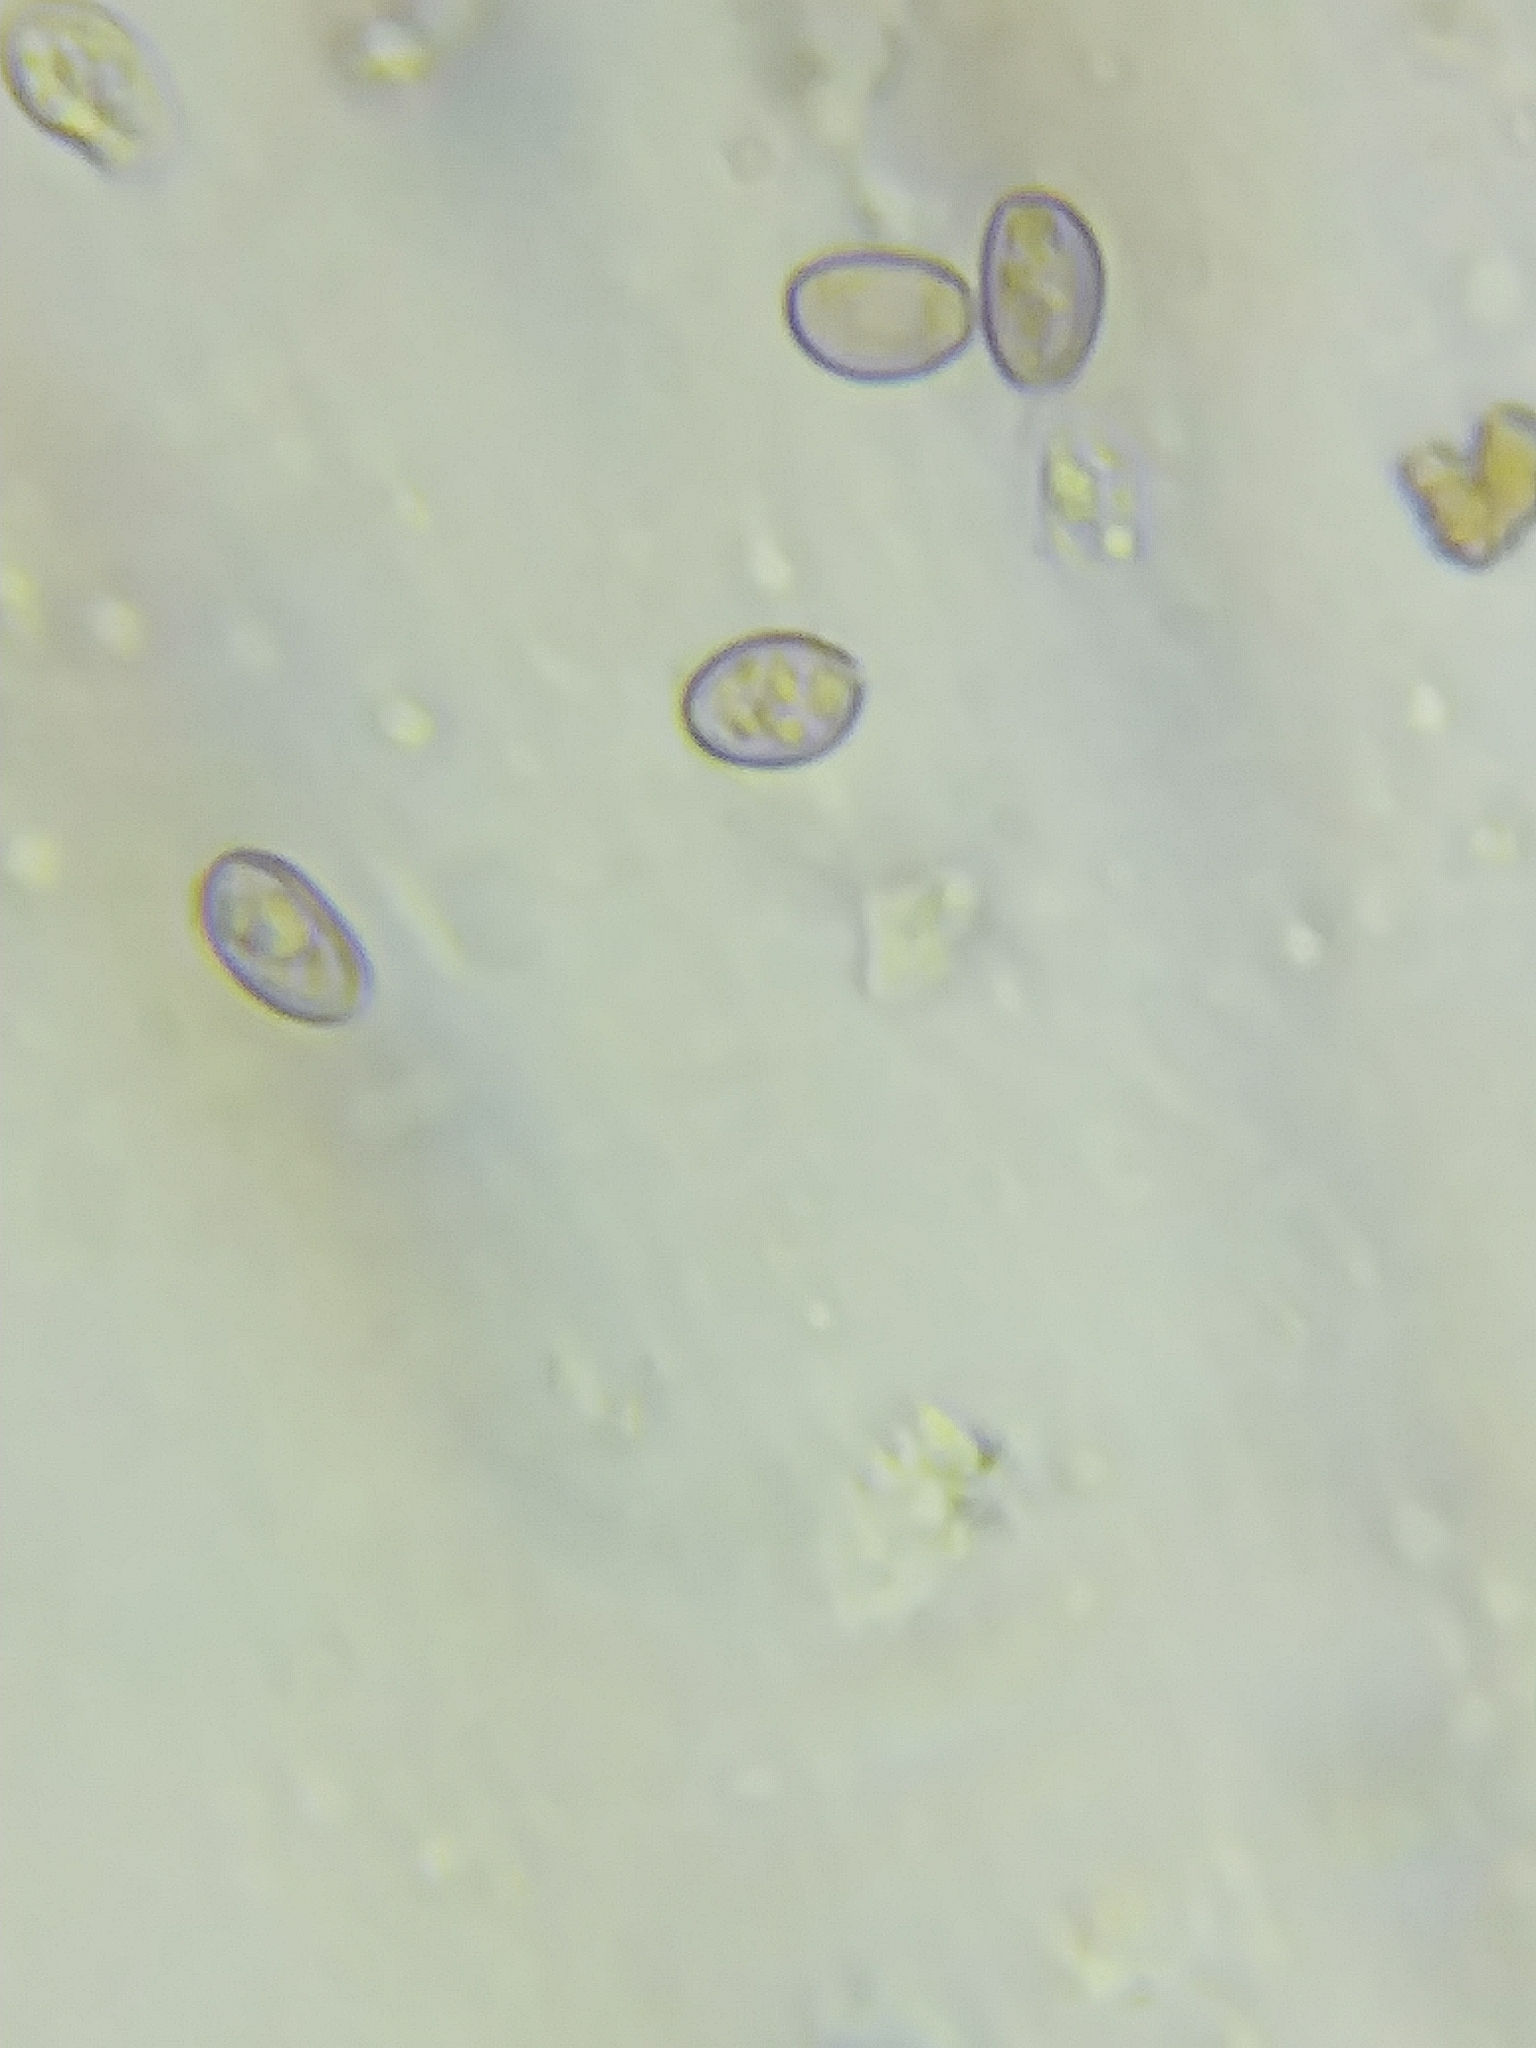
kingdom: Fungi
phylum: Basidiomycota
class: Agaricomycetes
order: Agaricales
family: Strophariaceae
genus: Hypholoma
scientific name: Hypholoma lateritium
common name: Brick caps
